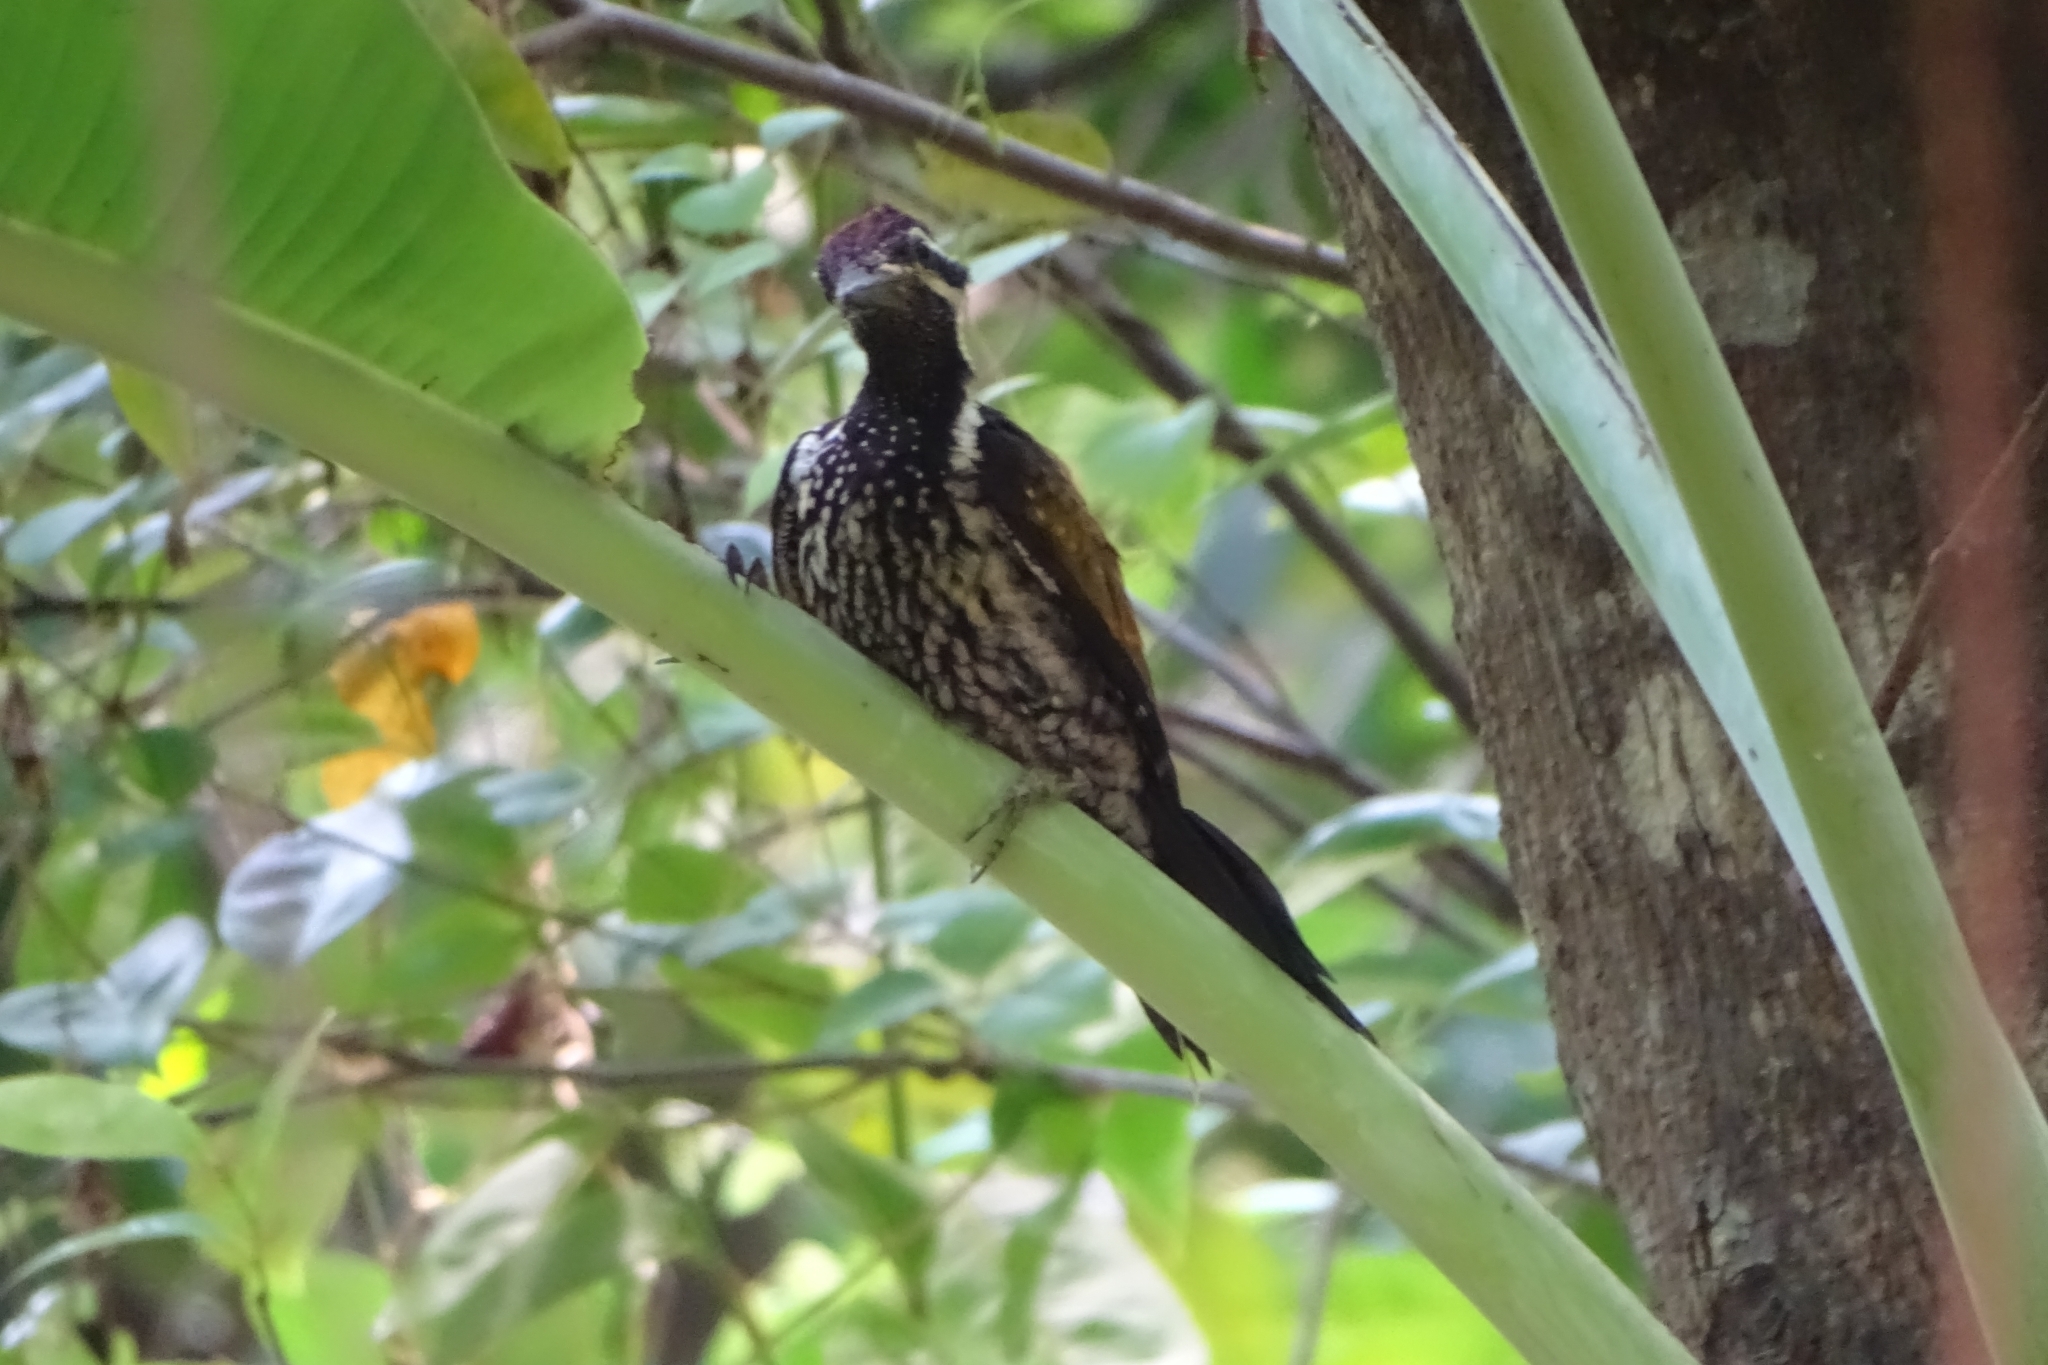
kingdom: Animalia
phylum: Chordata
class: Aves
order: Piciformes
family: Picidae
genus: Dinopium
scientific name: Dinopium benghalense
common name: Black-rumped flameback
